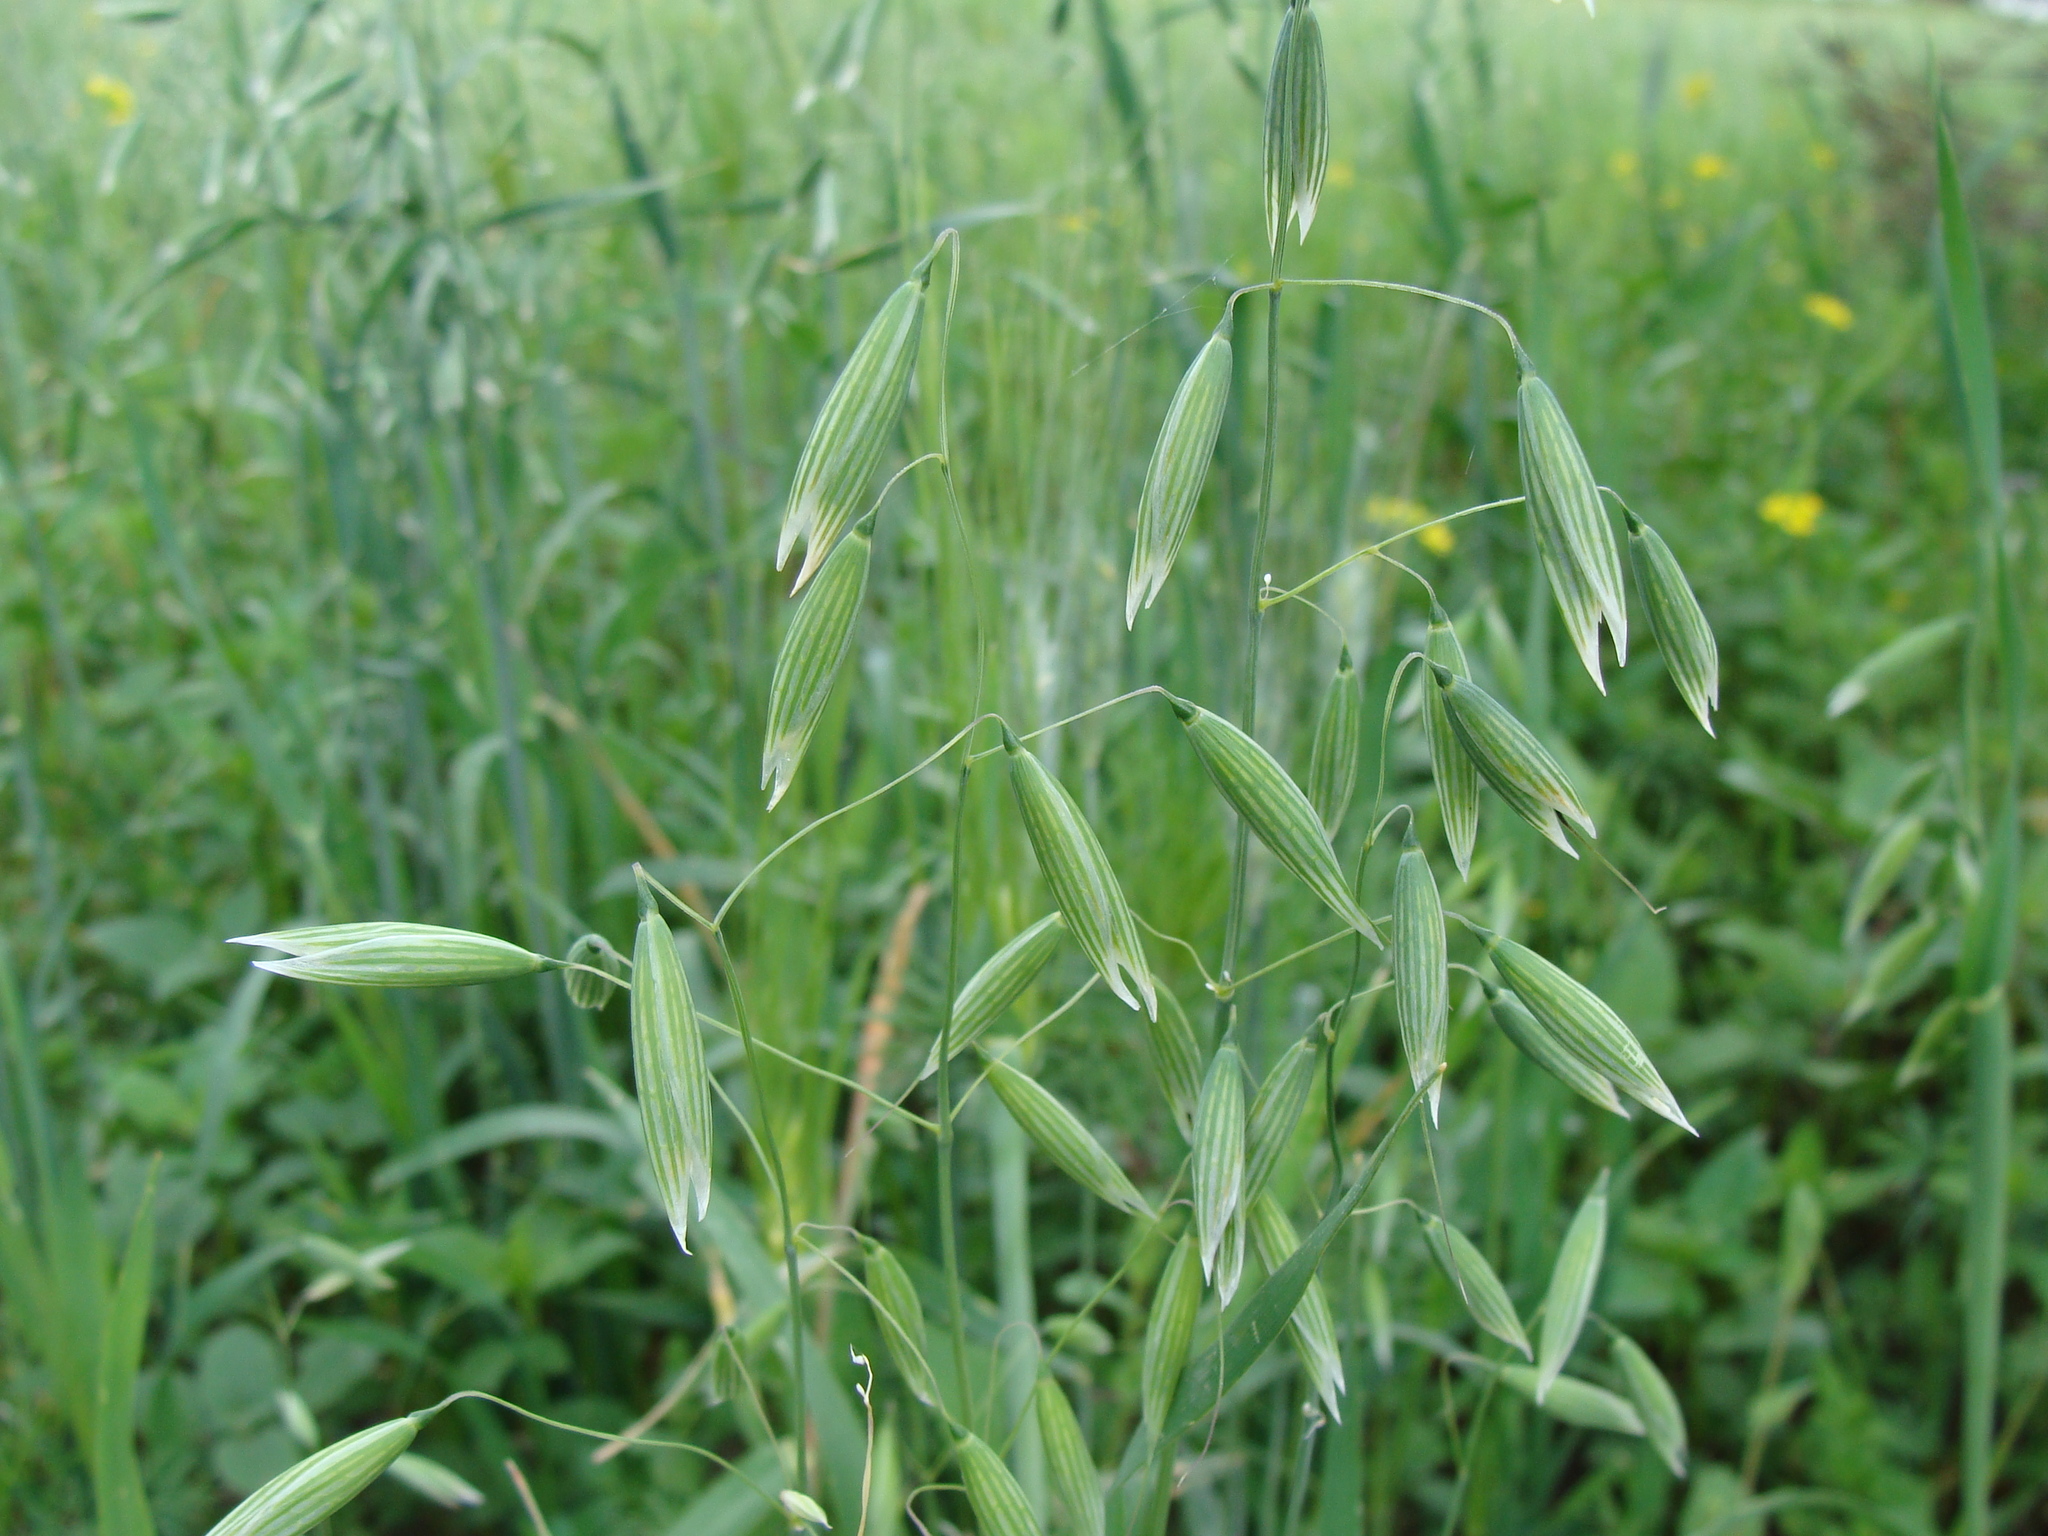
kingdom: Plantae
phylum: Tracheophyta
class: Liliopsida
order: Poales
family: Poaceae
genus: Avena
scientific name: Avena fatua
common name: Wild oat
